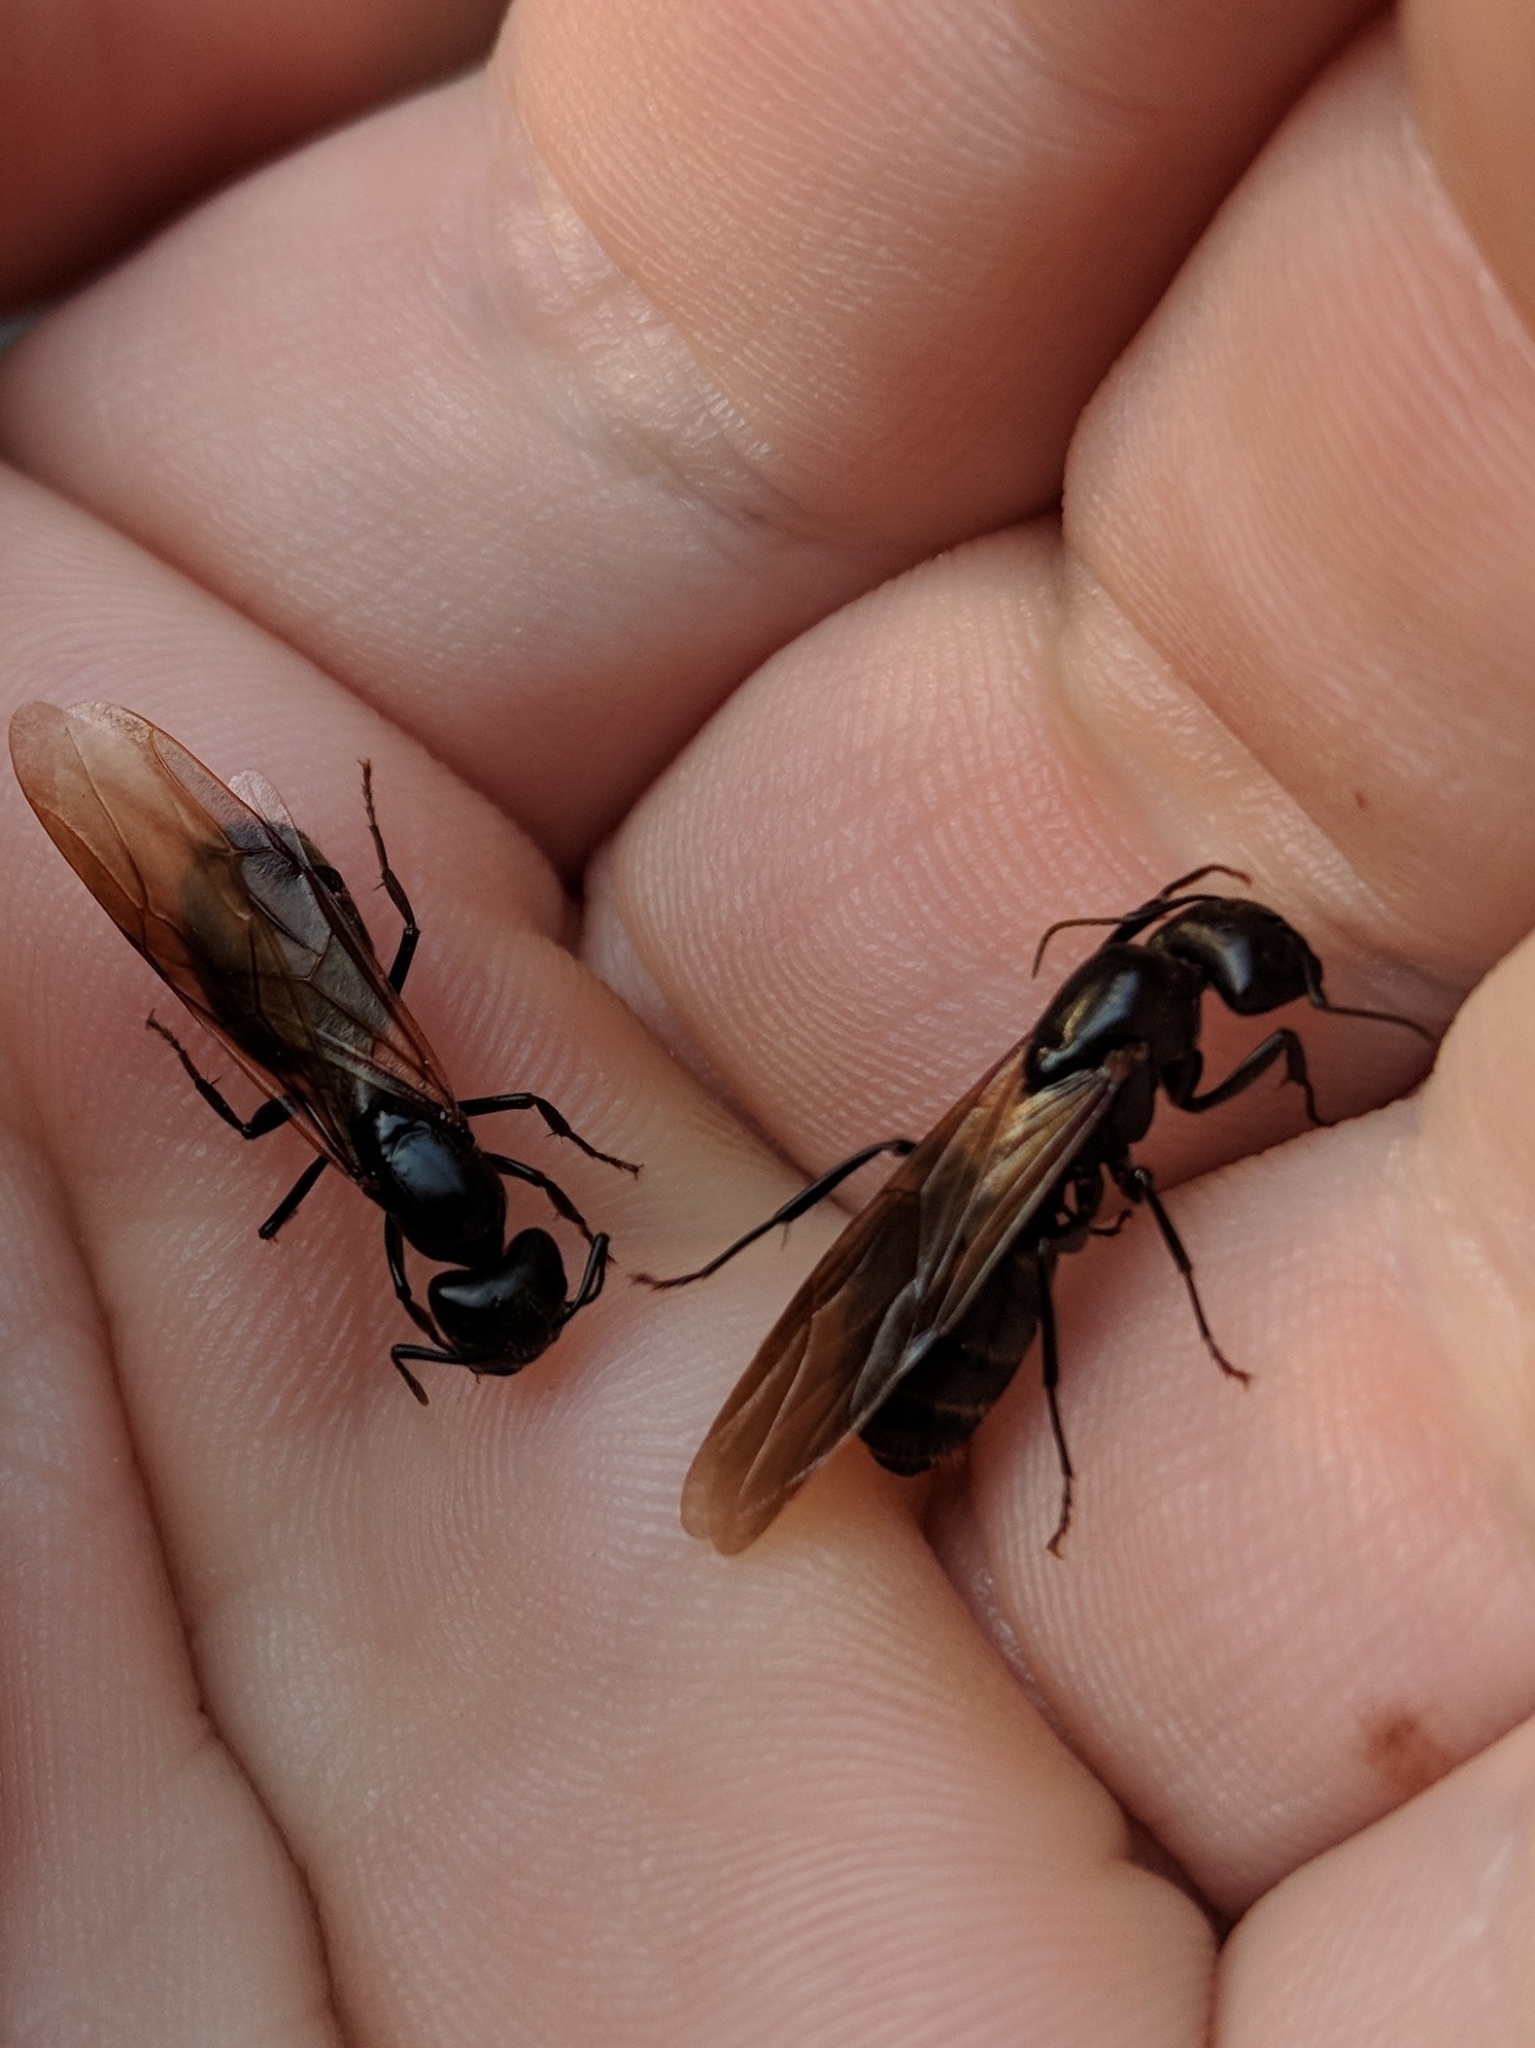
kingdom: Animalia
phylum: Arthropoda
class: Insecta
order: Hymenoptera
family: Formicidae
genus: Camponotus
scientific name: Camponotus pennsylvanicus
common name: Black carpenter ant
